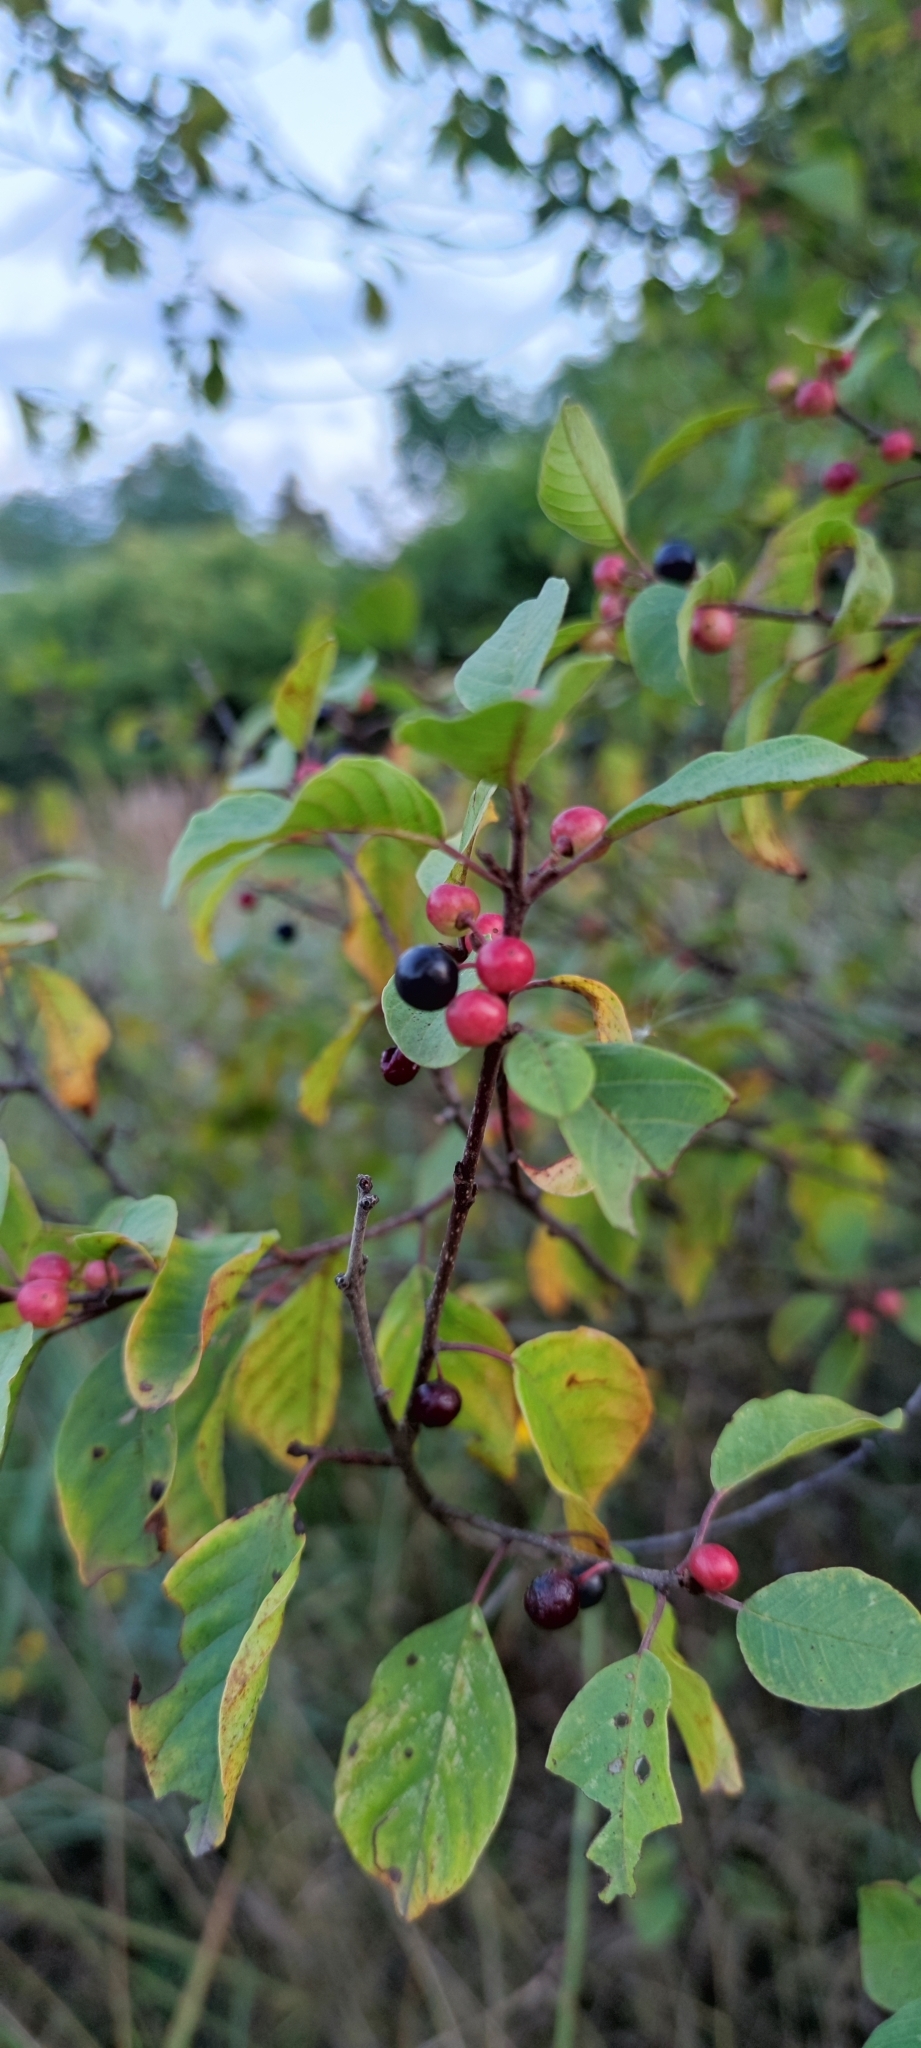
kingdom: Plantae
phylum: Tracheophyta
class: Magnoliopsida
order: Rosales
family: Rhamnaceae
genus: Frangula
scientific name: Frangula alnus
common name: Alder buckthorn
